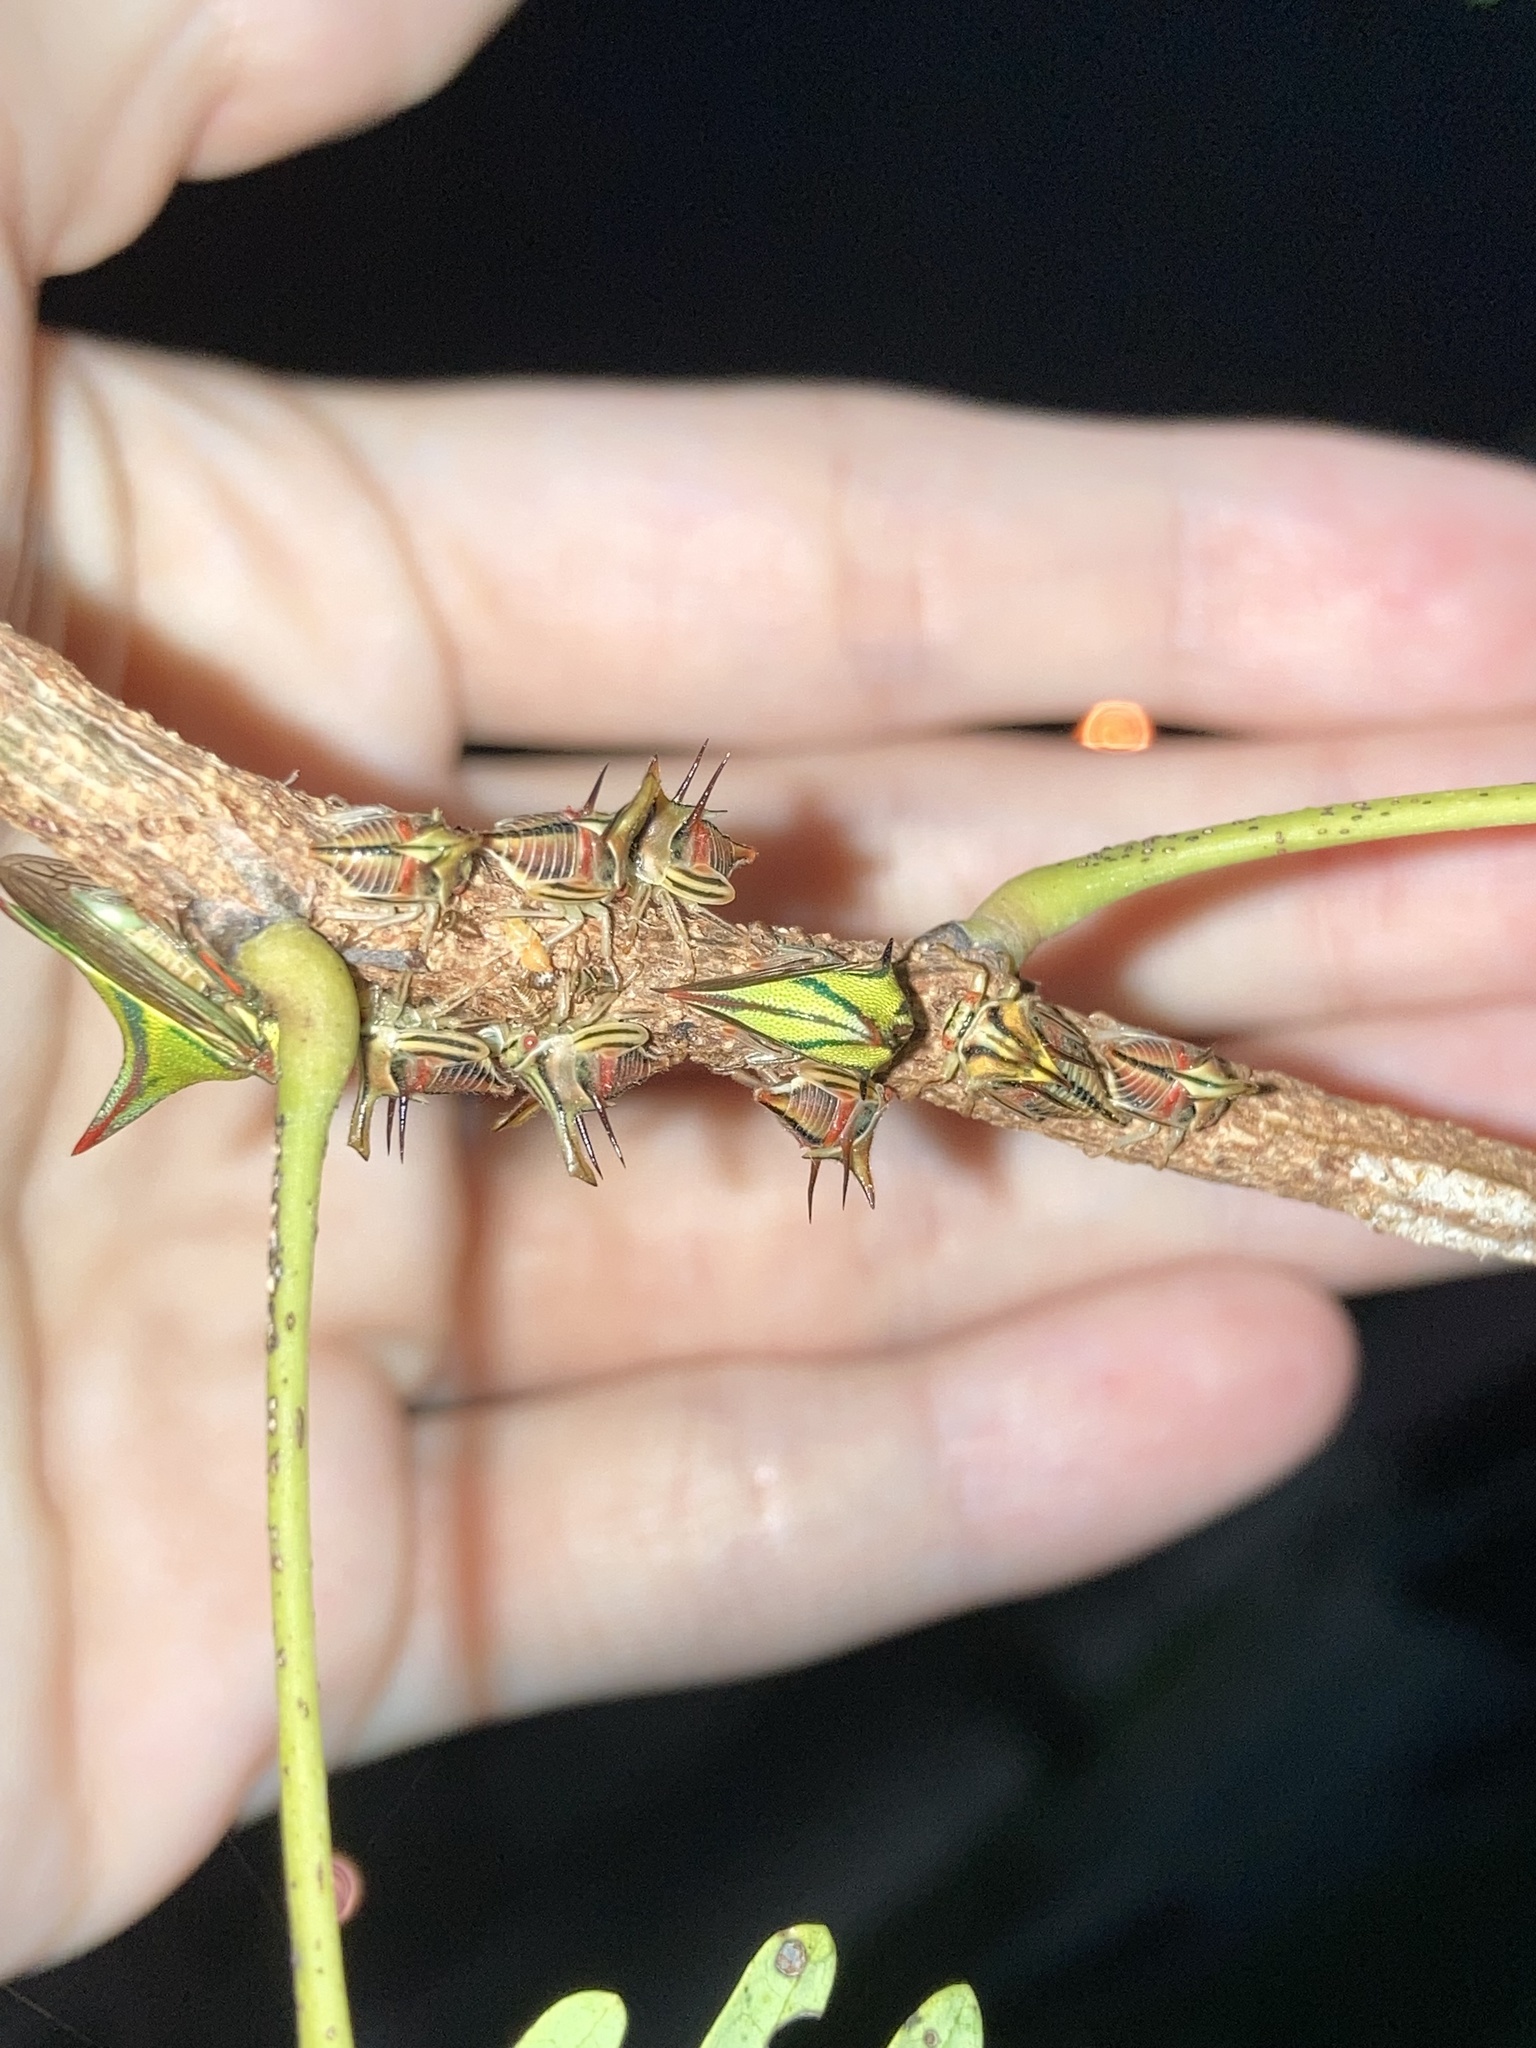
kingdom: Animalia
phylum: Arthropoda
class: Insecta
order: Hemiptera
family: Membracidae
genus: Umbonia
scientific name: Umbonia crassicornis
